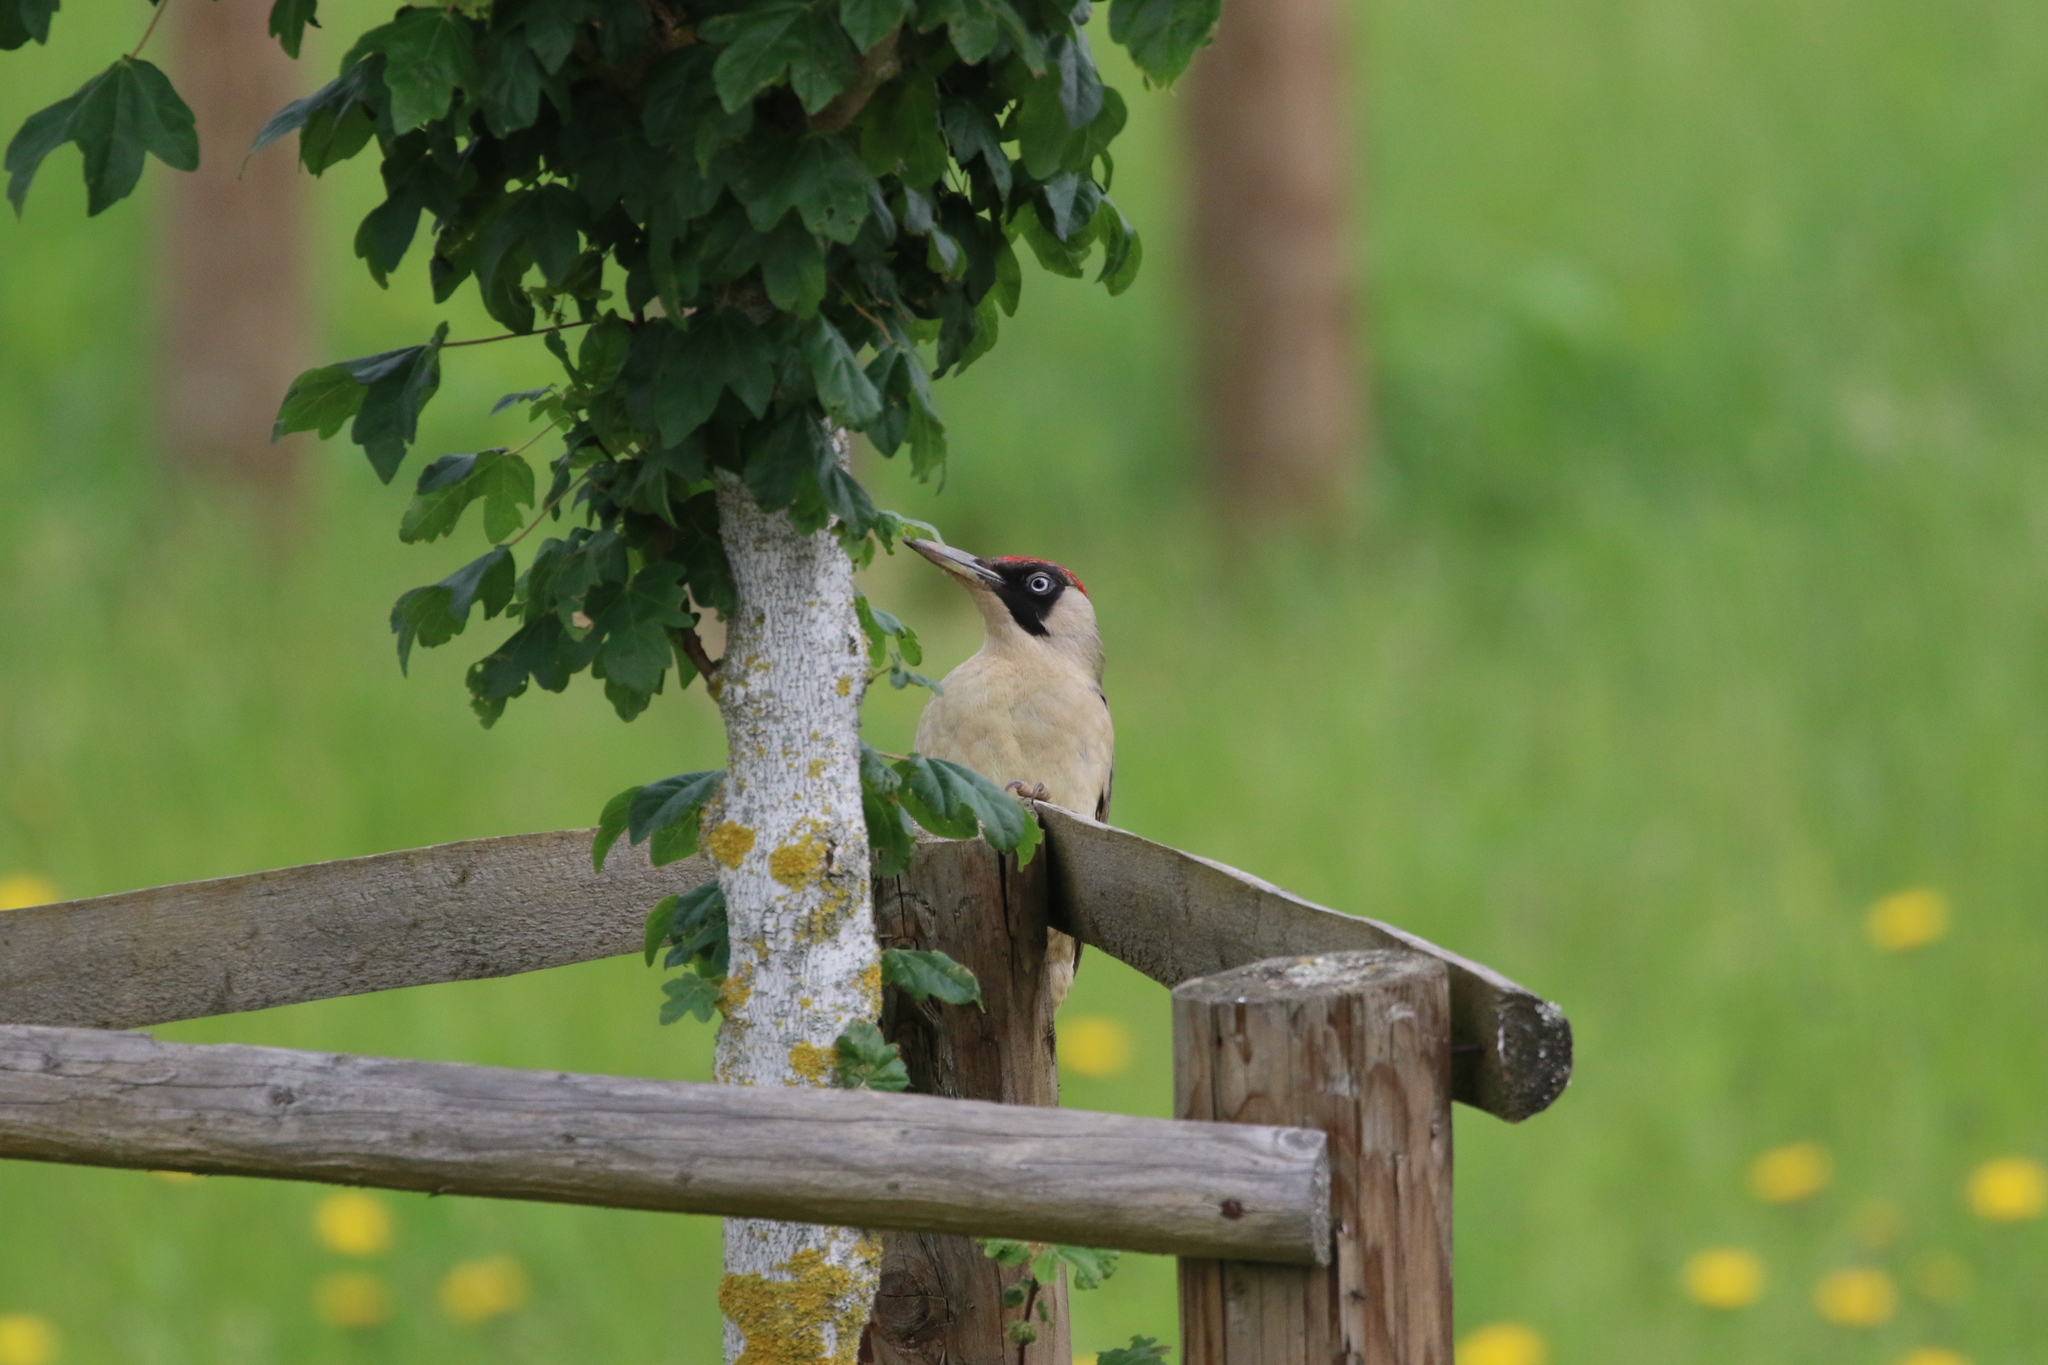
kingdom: Animalia
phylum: Chordata
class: Aves
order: Piciformes
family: Picidae
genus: Picus
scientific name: Picus viridis
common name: European green woodpecker
